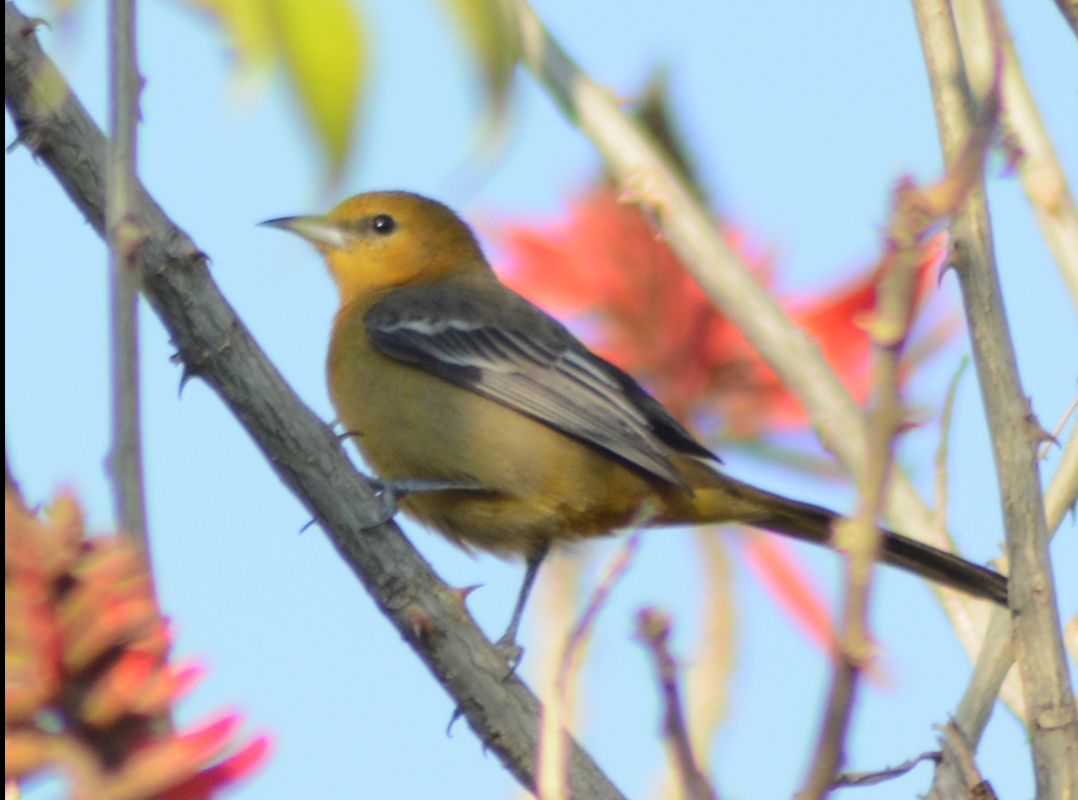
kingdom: Animalia
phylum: Chordata
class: Aves
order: Passeriformes
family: Icteridae
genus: Icterus
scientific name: Icterus cucullatus
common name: Hooded oriole
